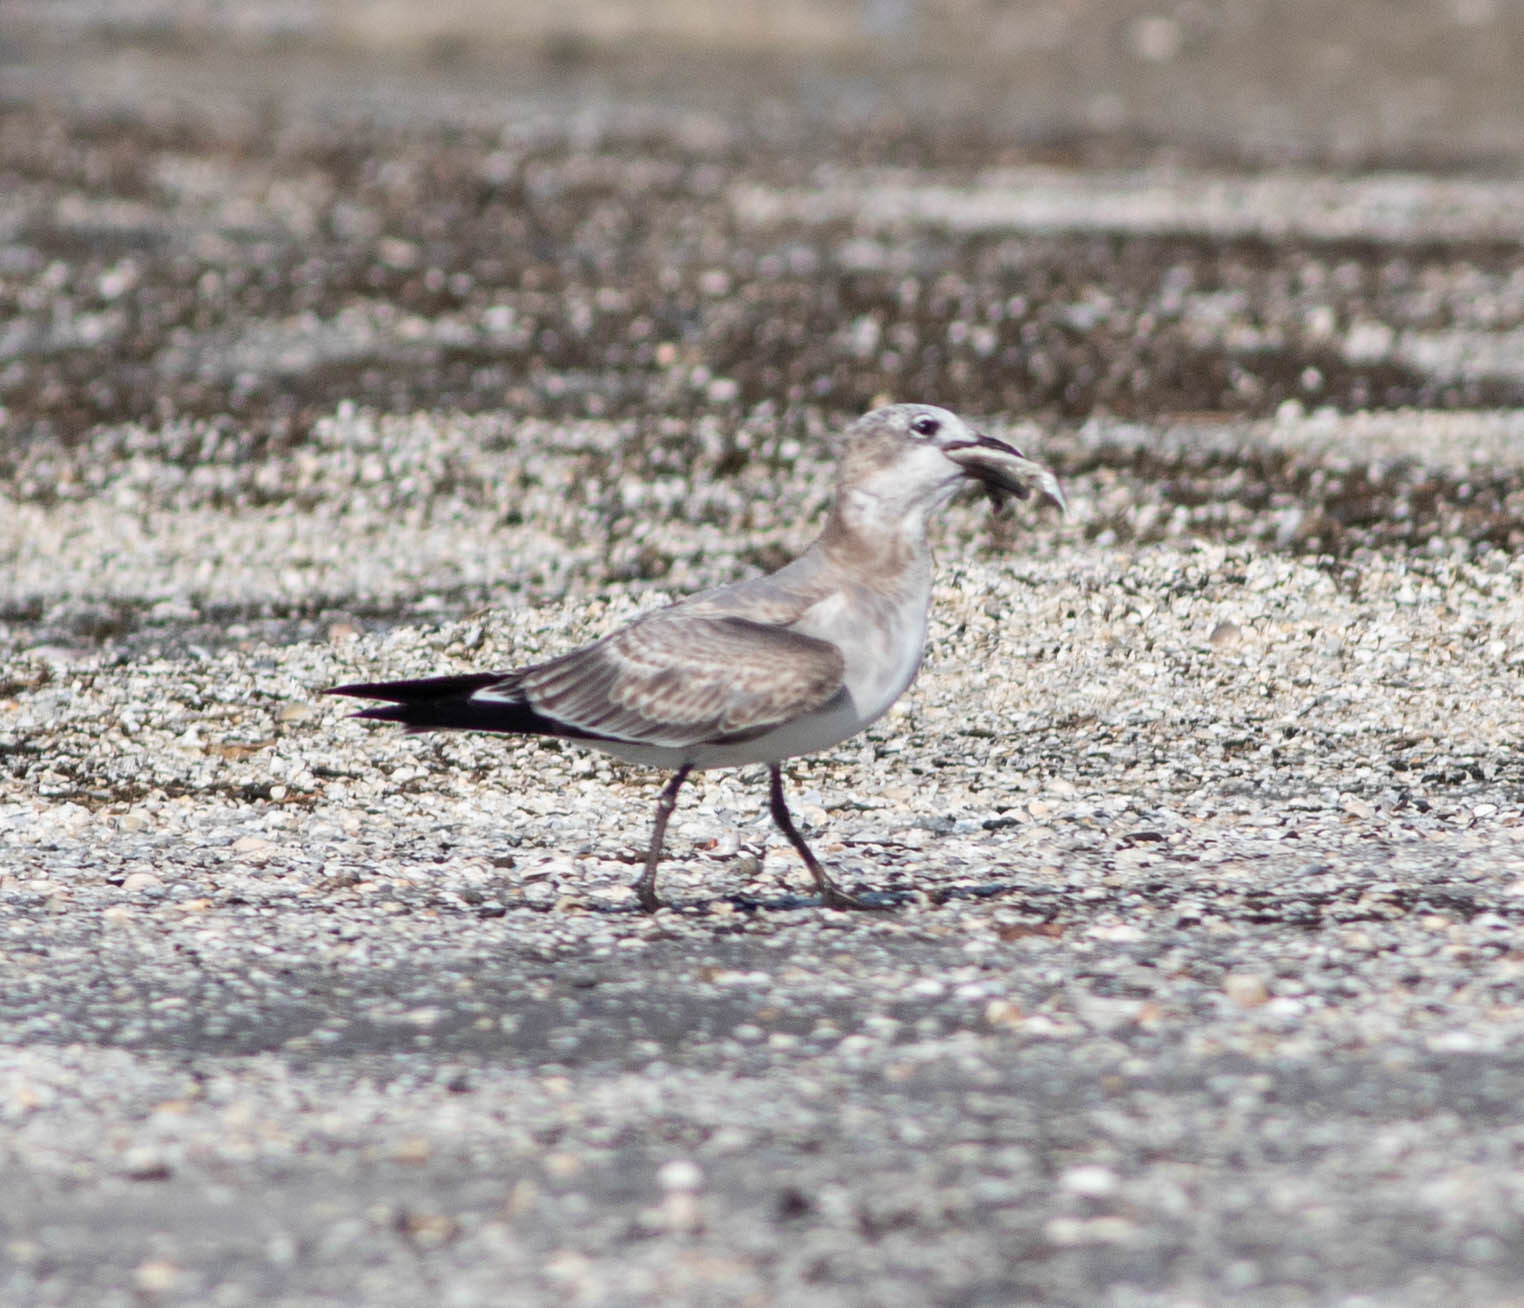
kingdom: Animalia
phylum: Chordata
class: Aves
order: Charadriiformes
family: Laridae
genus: Leucophaeus
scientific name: Leucophaeus atricilla
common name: Laughing gull
